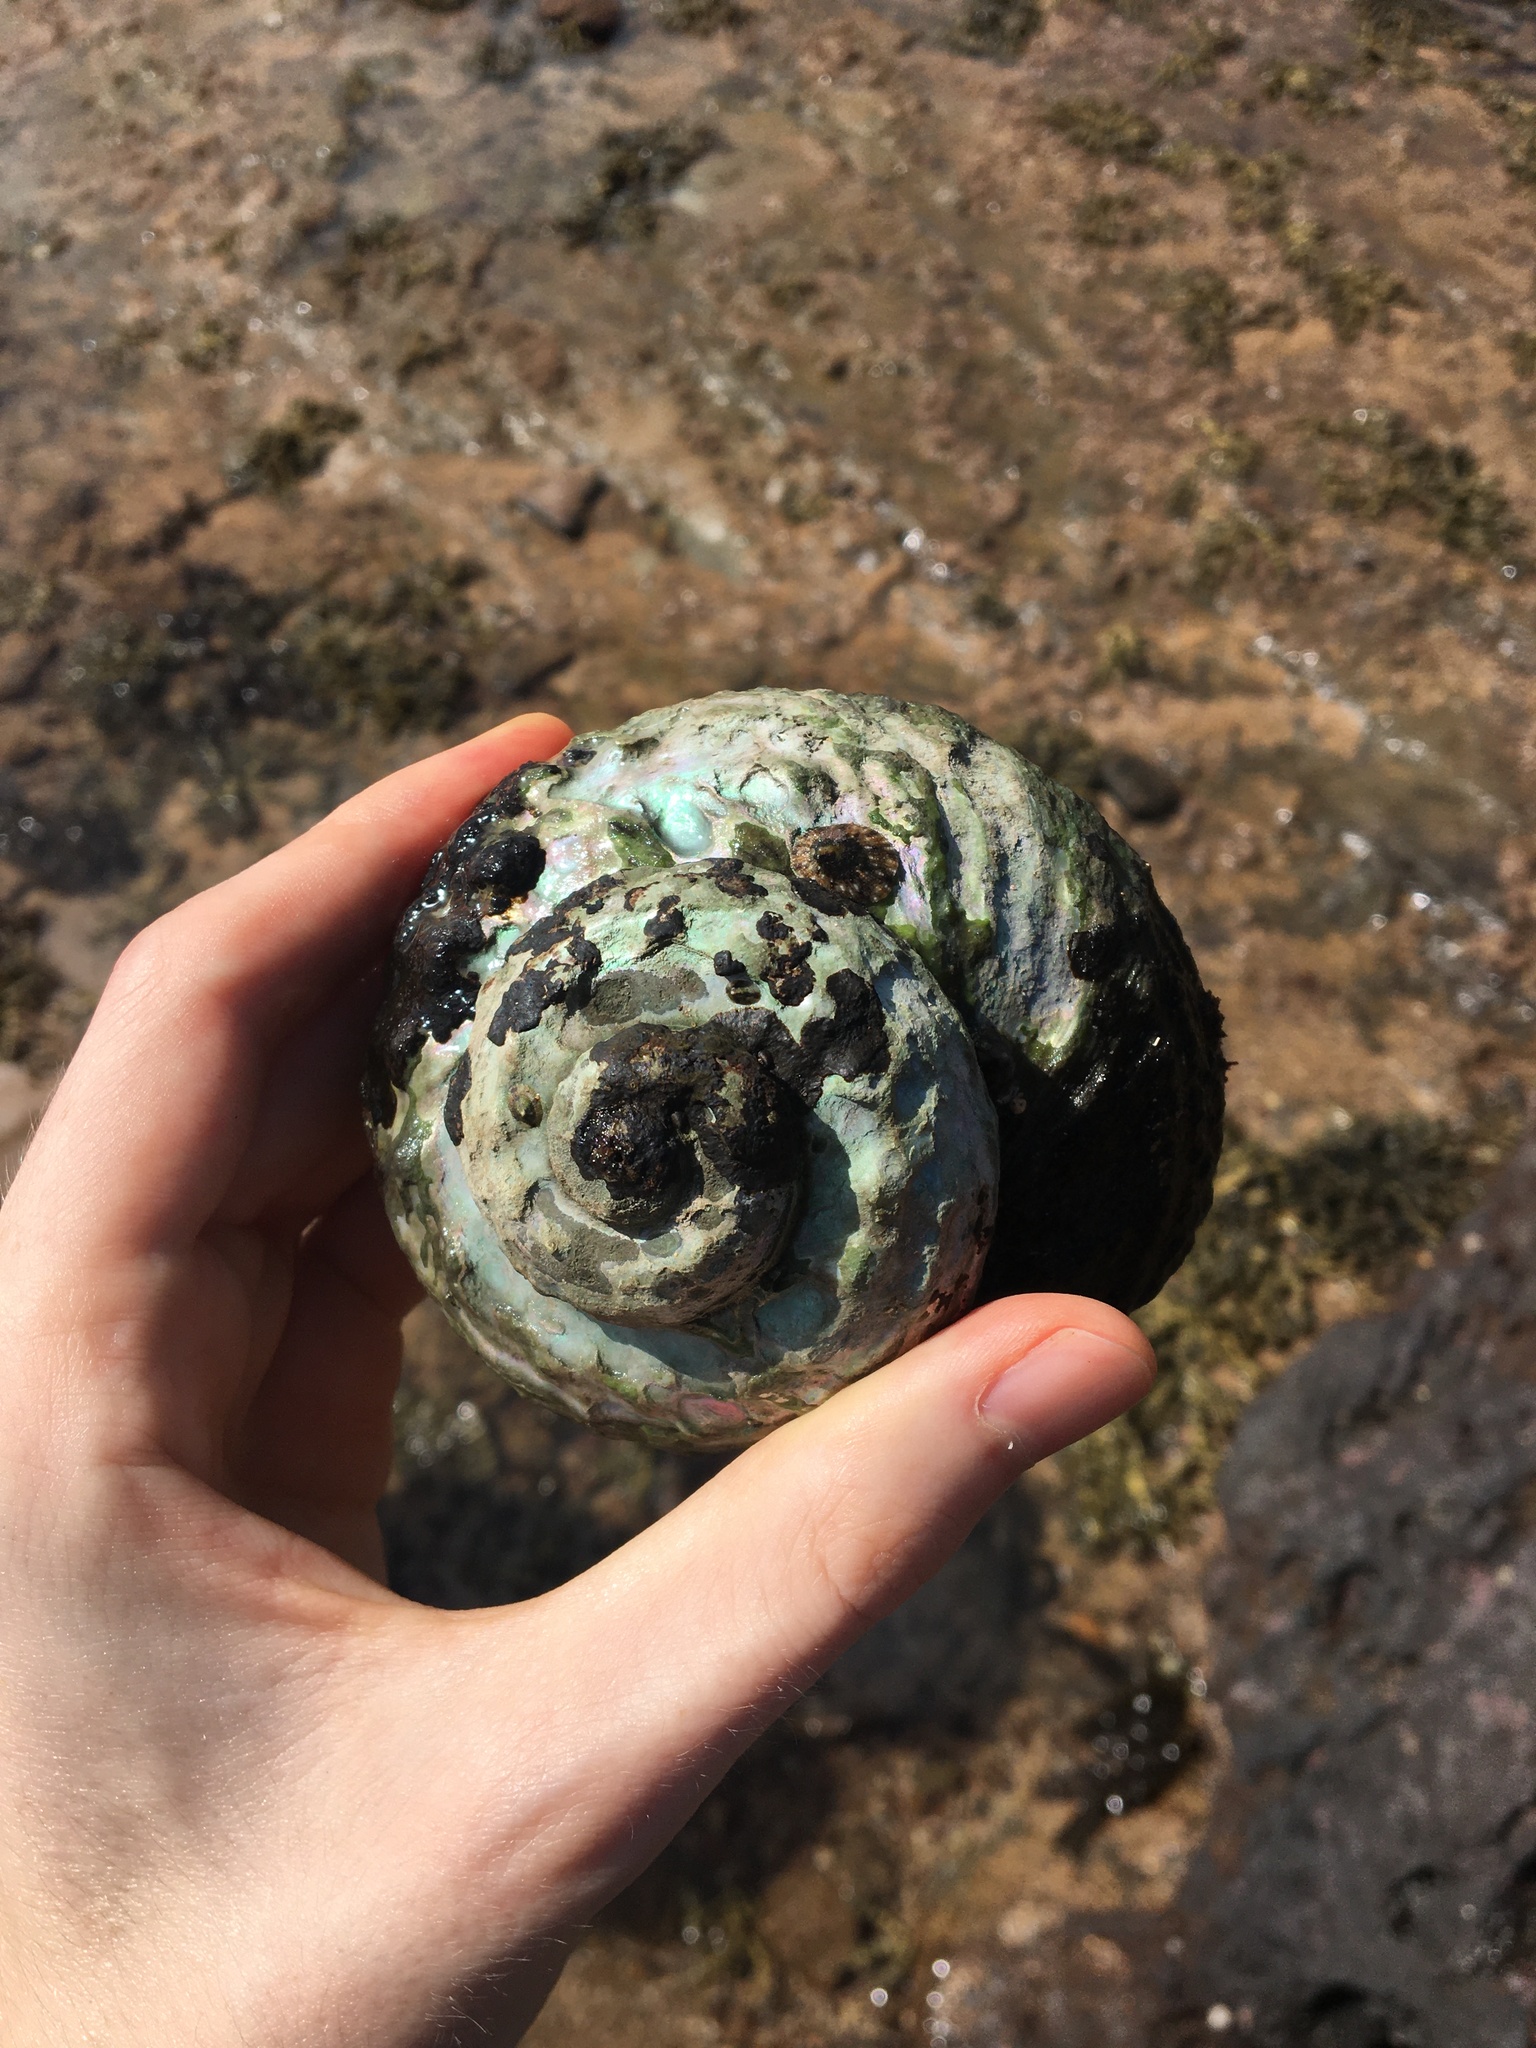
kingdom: Animalia
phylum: Mollusca
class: Gastropoda
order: Trochida
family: Turbinidae
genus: Lunella
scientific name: Lunella torquata
